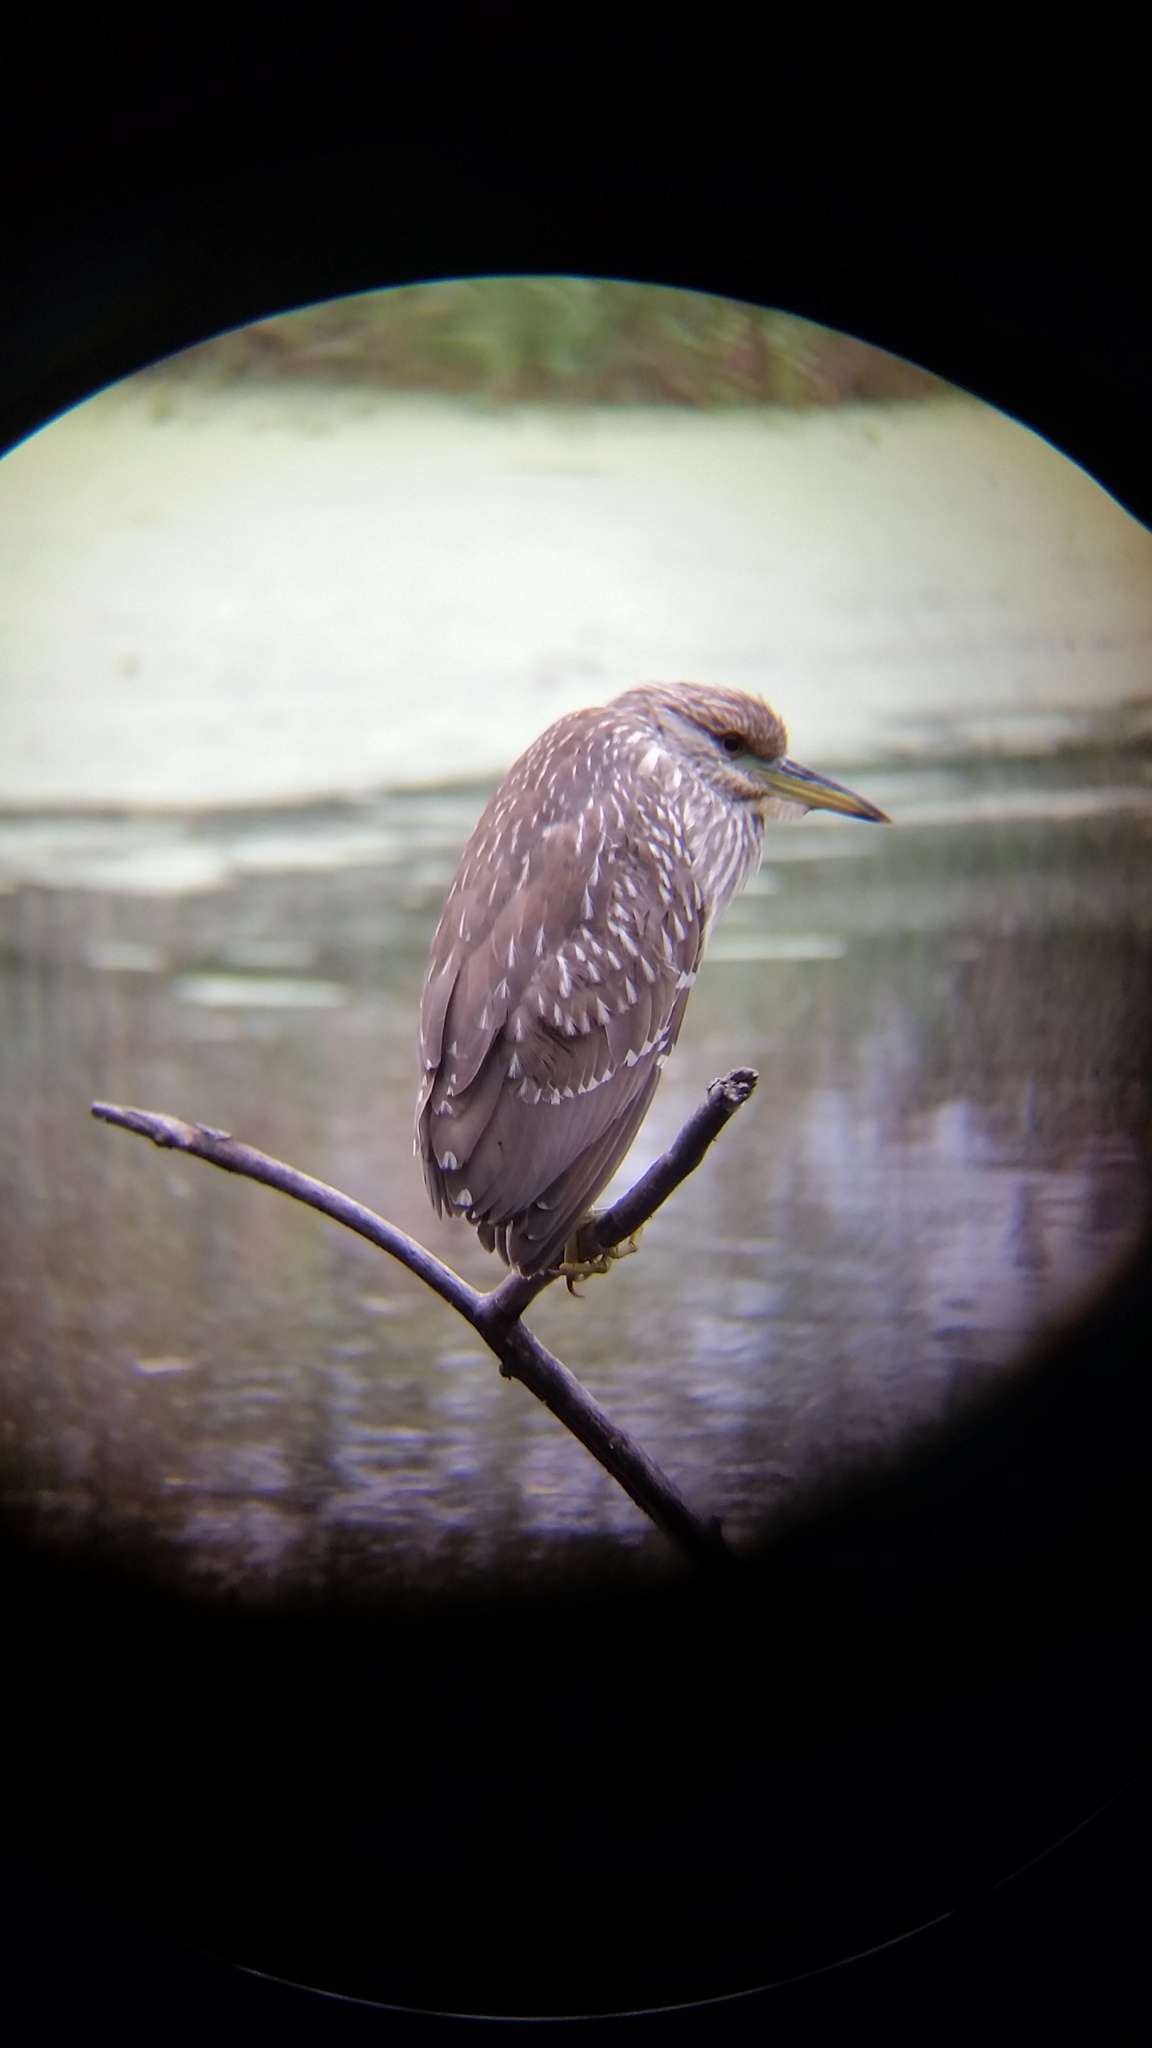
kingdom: Animalia
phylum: Chordata
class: Aves
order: Pelecaniformes
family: Ardeidae
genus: Nycticorax
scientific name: Nycticorax nycticorax
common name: Black-crowned night heron
